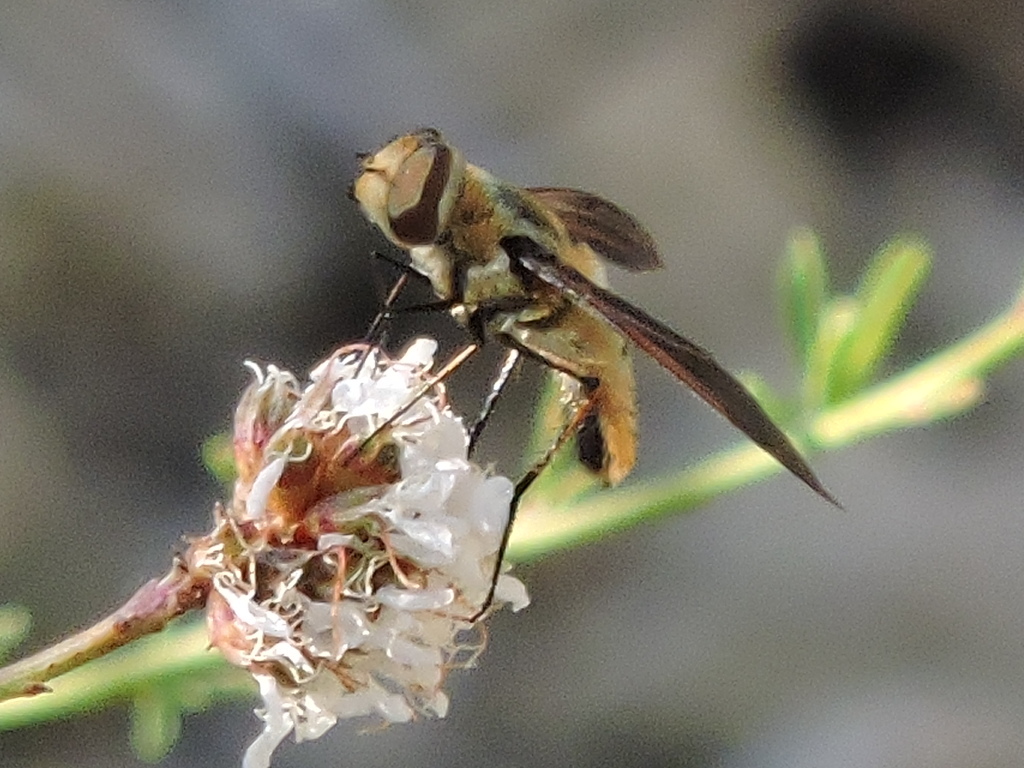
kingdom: Animalia
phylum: Arthropoda
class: Insecta
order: Diptera
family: Bombyliidae
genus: Poecilanthrax
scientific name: Poecilanthrax lucifer
